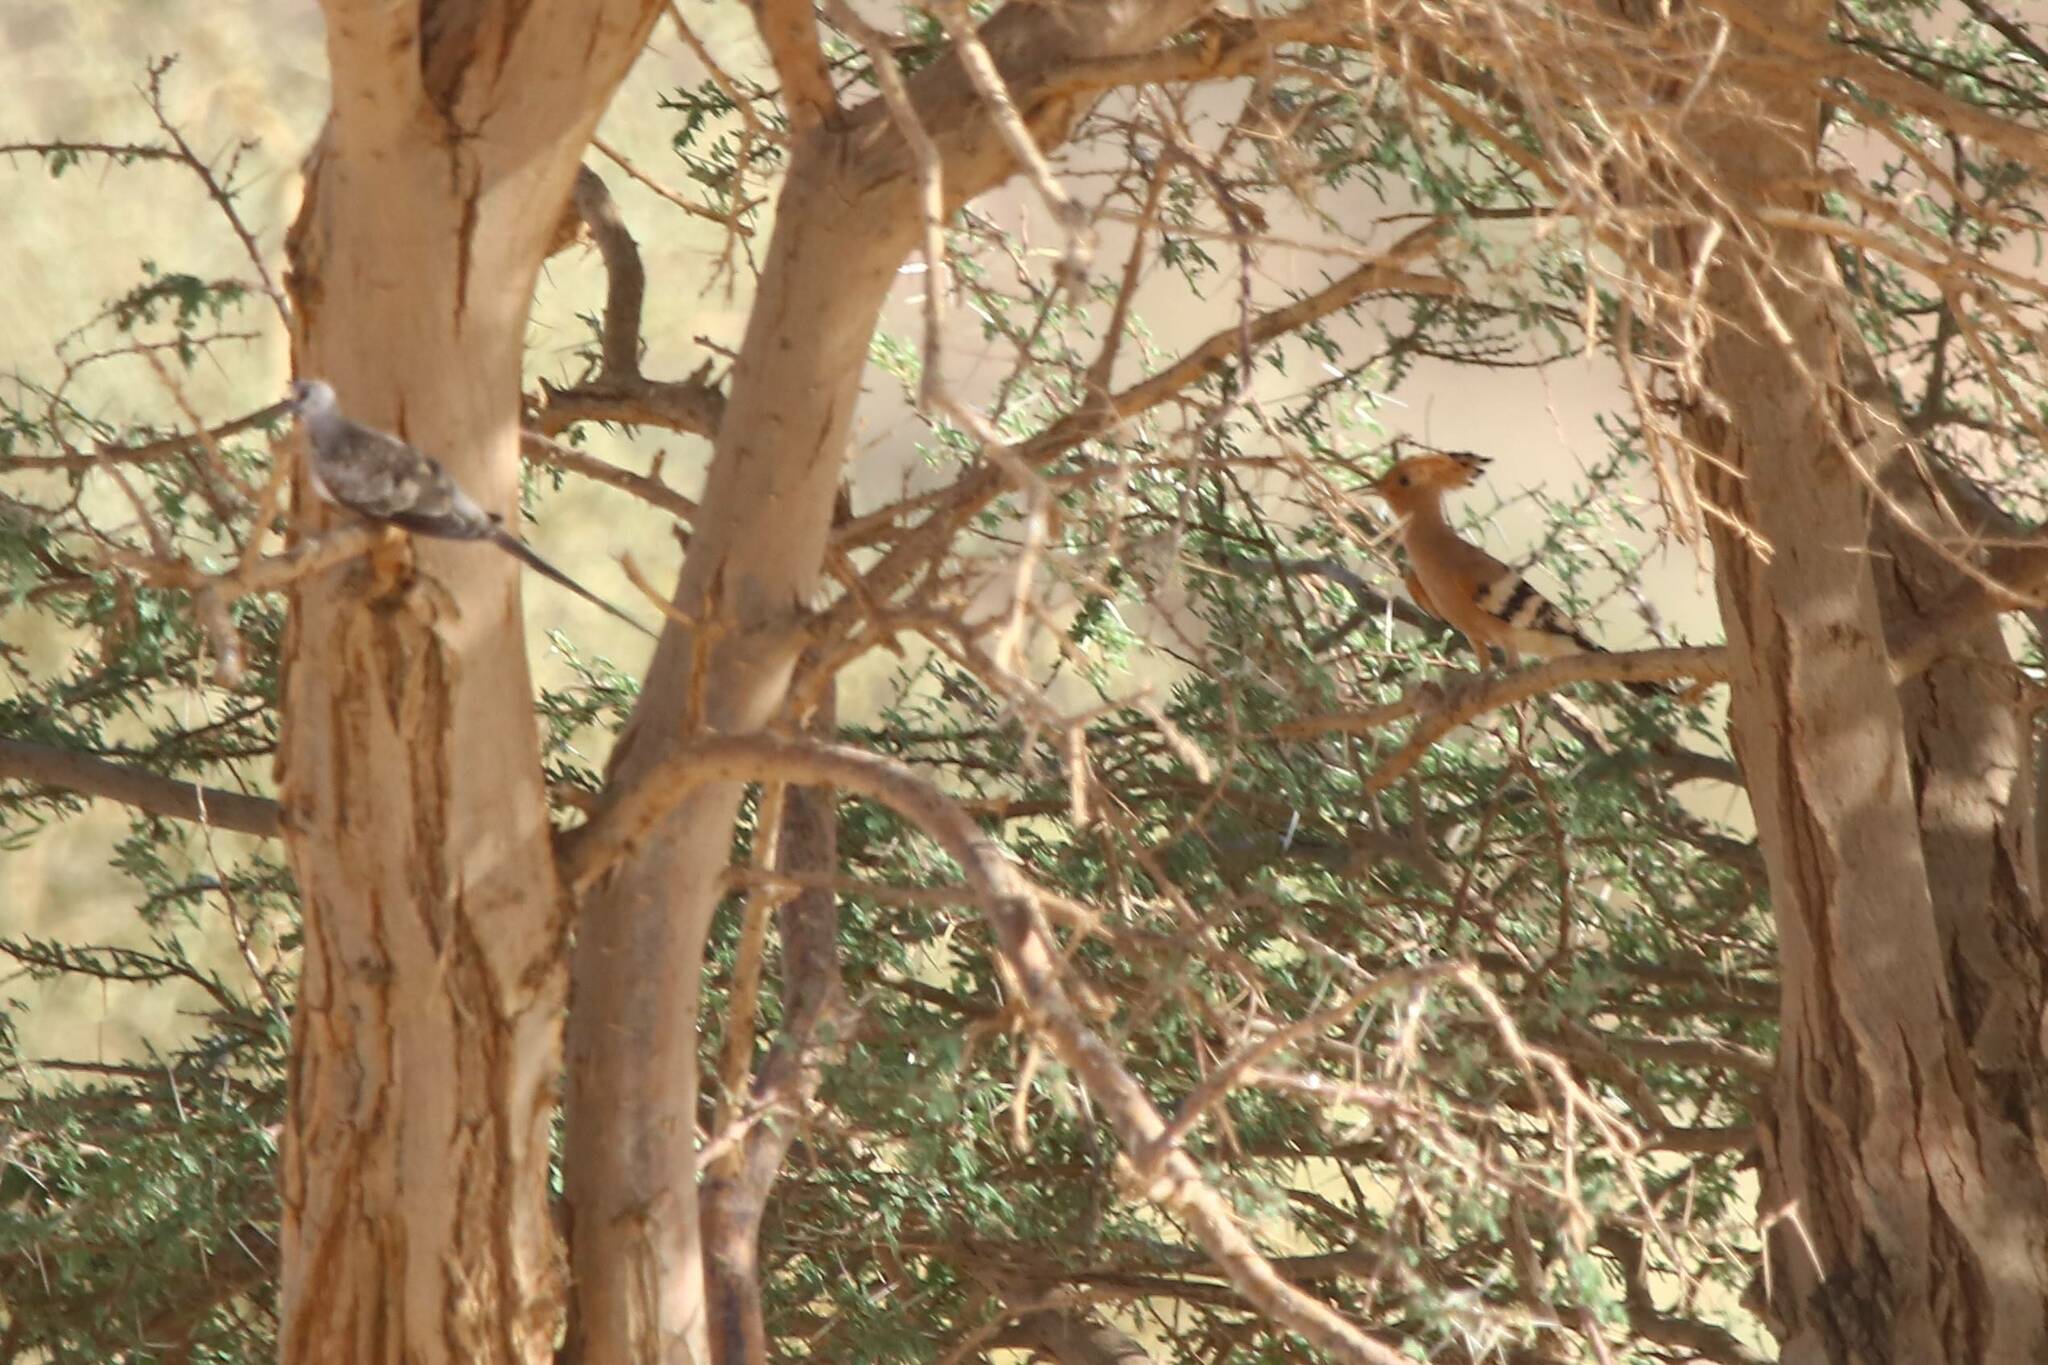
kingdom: Animalia
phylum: Chordata
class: Aves
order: Bucerotiformes
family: Upupidae
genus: Upupa
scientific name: Upupa epops
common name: Eurasian hoopoe
